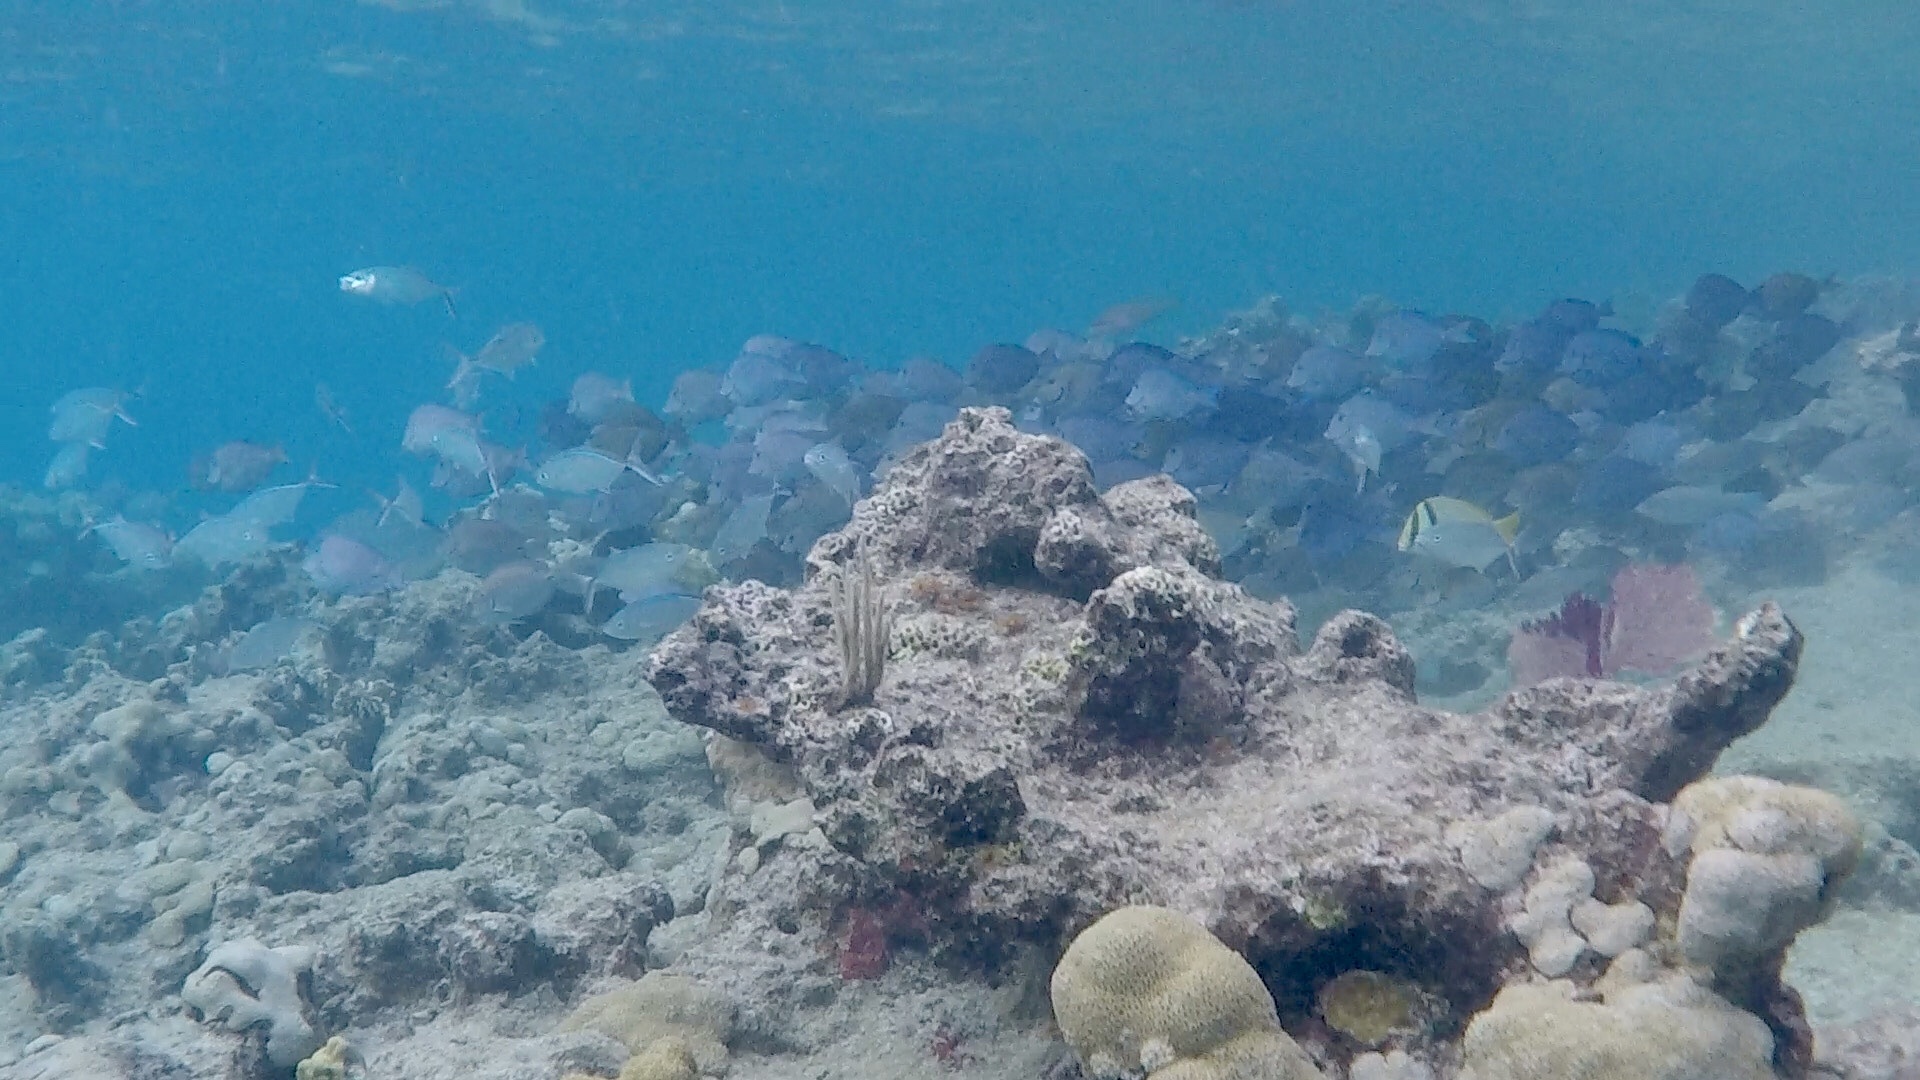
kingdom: Animalia
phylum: Chordata
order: Perciformes
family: Acanthuridae
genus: Acanthurus
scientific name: Acanthurus bahianus
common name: Ocean surgeon
